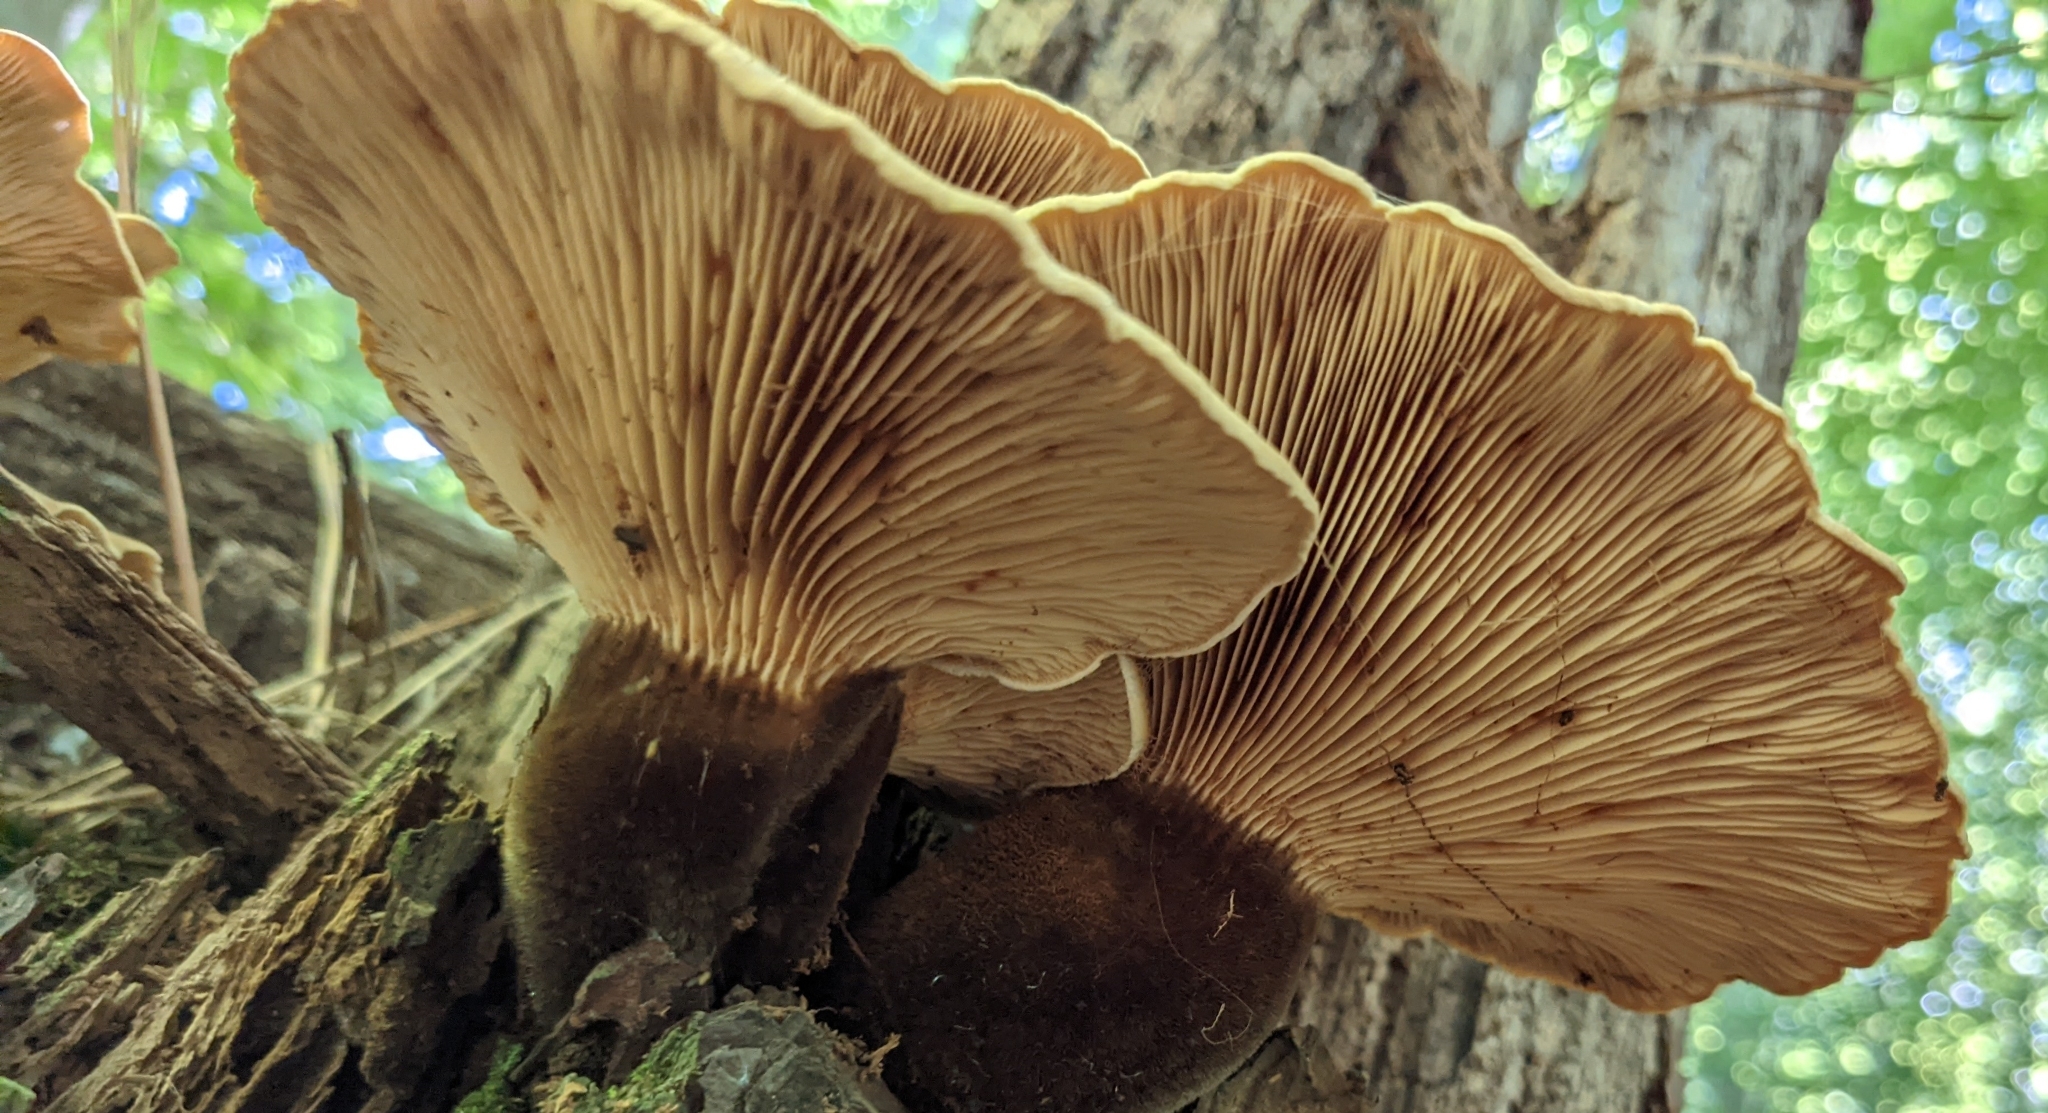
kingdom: Fungi
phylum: Basidiomycota
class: Agaricomycetes
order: Boletales
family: Tapinellaceae
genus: Tapinella
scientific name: Tapinella atrotomentosa
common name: Velvet rollrim
